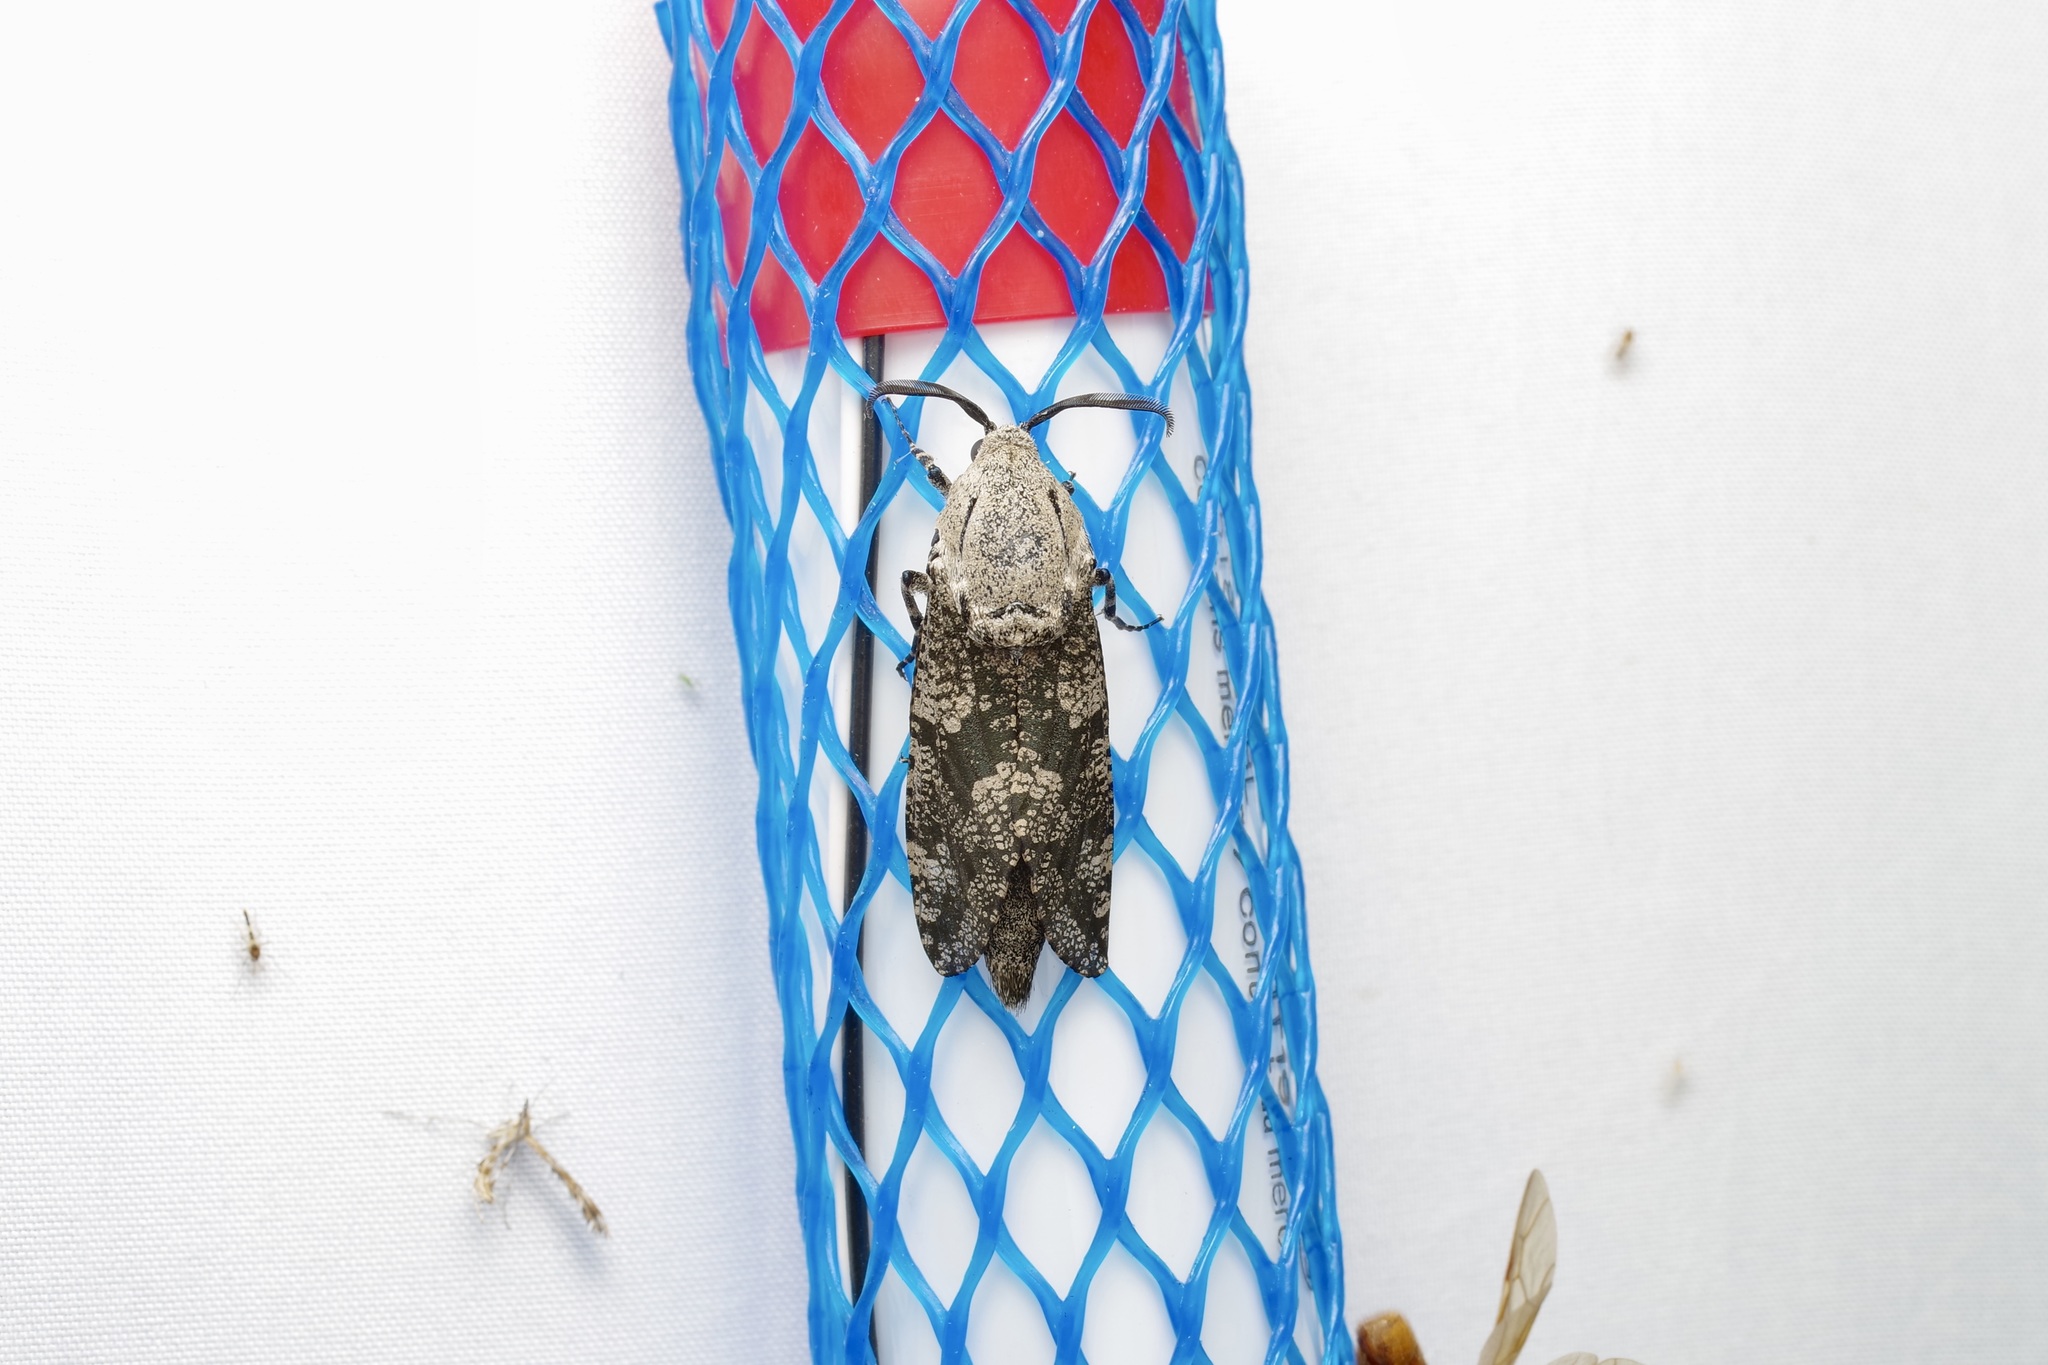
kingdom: Animalia
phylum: Arthropoda
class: Insecta
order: Lepidoptera
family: Cossidae
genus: Prionoxystus
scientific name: Prionoxystus robiniae
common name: Carpenterworm
